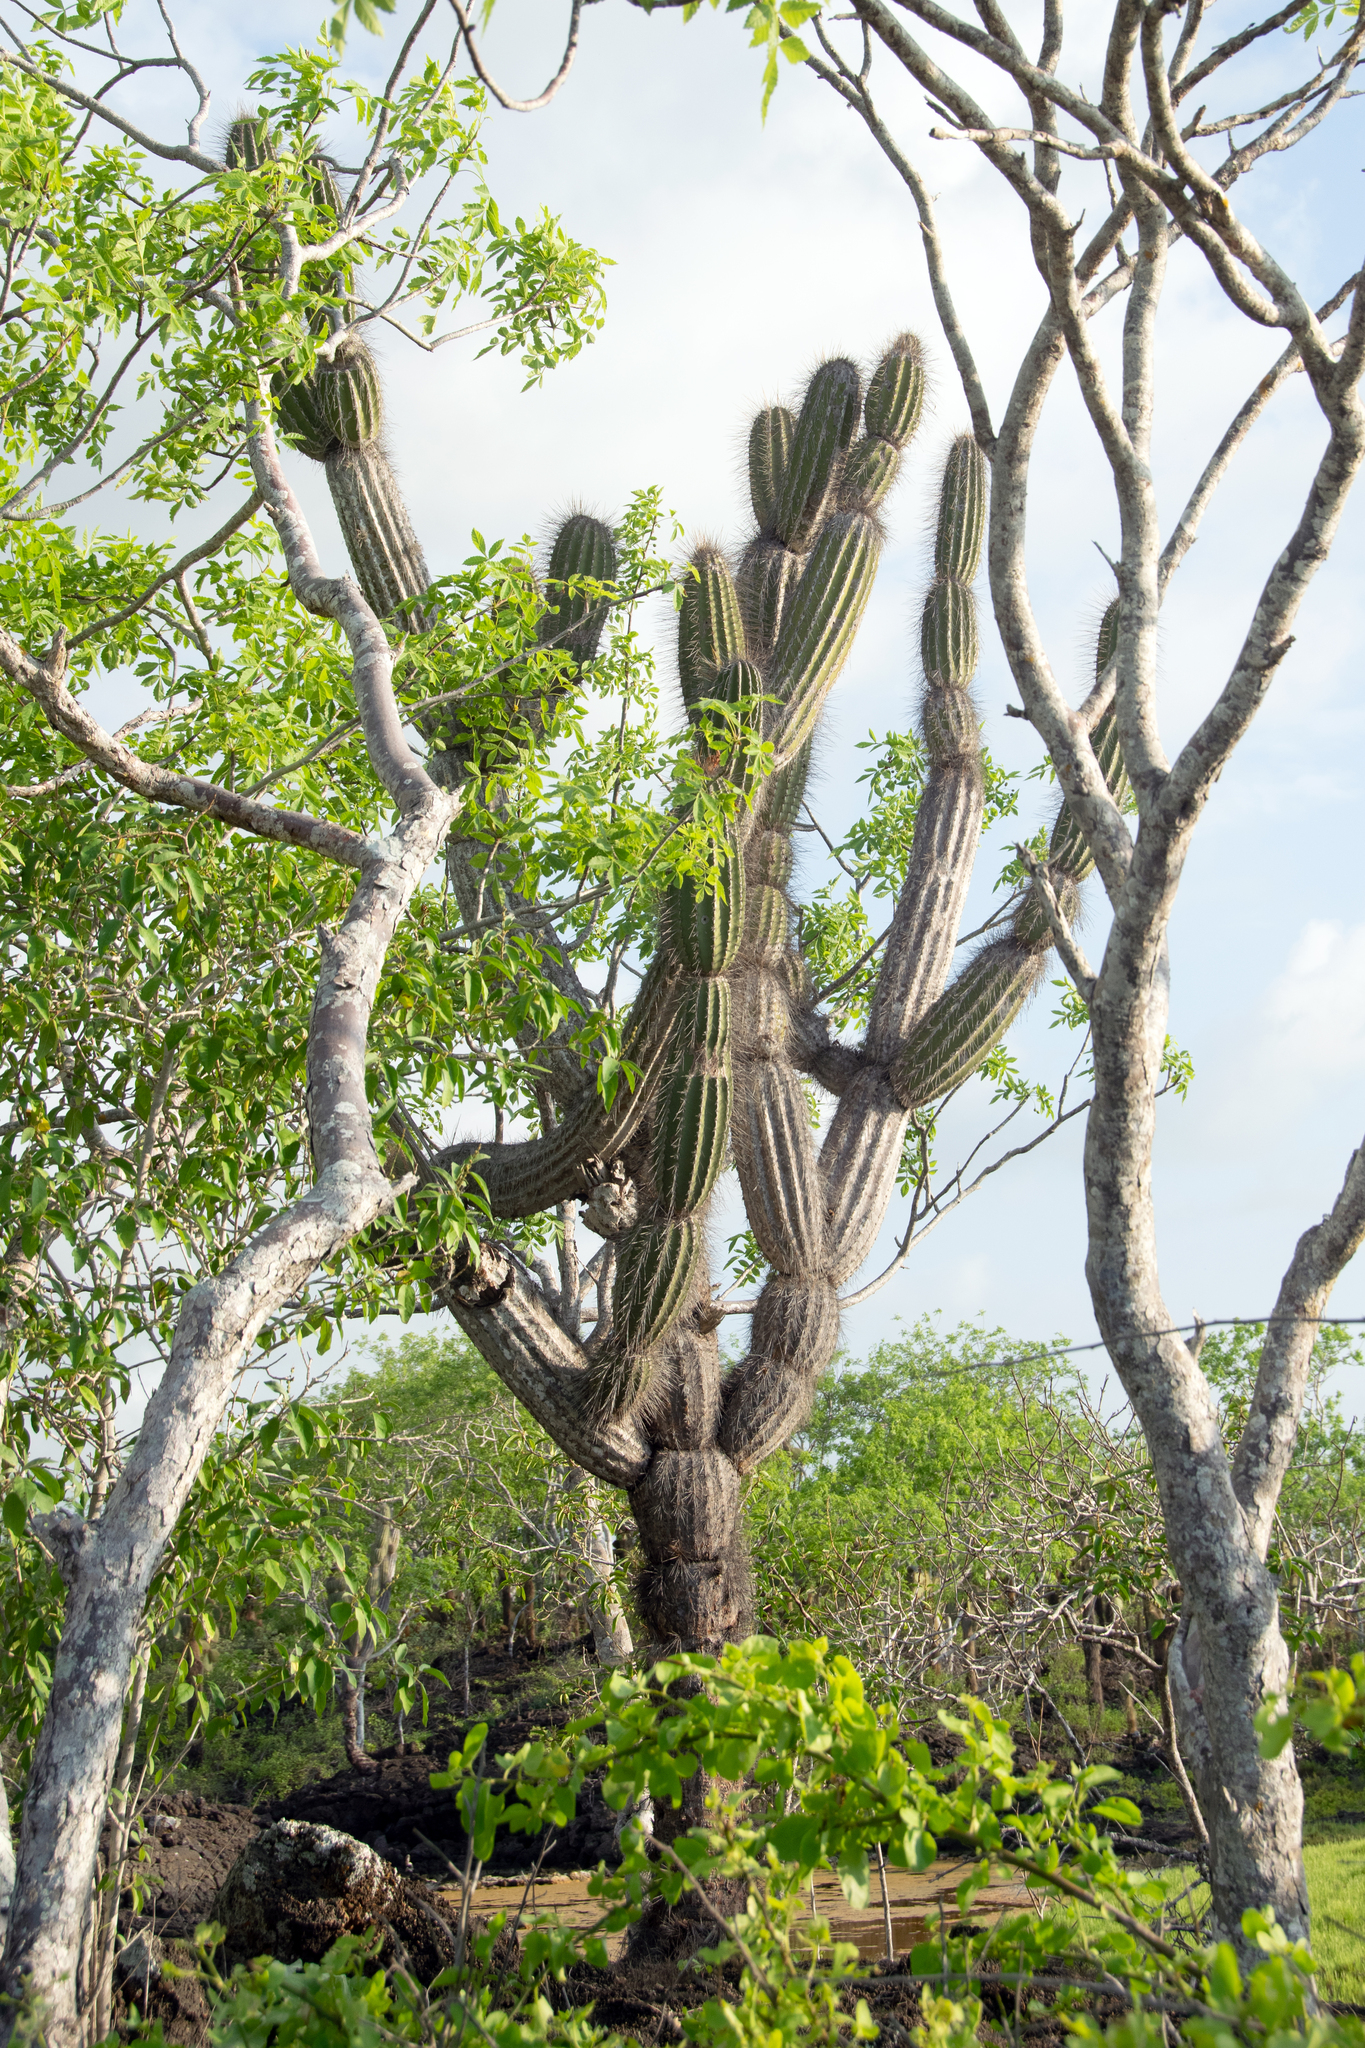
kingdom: Plantae
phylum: Tracheophyta
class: Magnoliopsida
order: Caryophyllales
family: Cactaceae
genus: Jasminocereus
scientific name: Jasminocereus thouarsii
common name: Candelabra cactus
